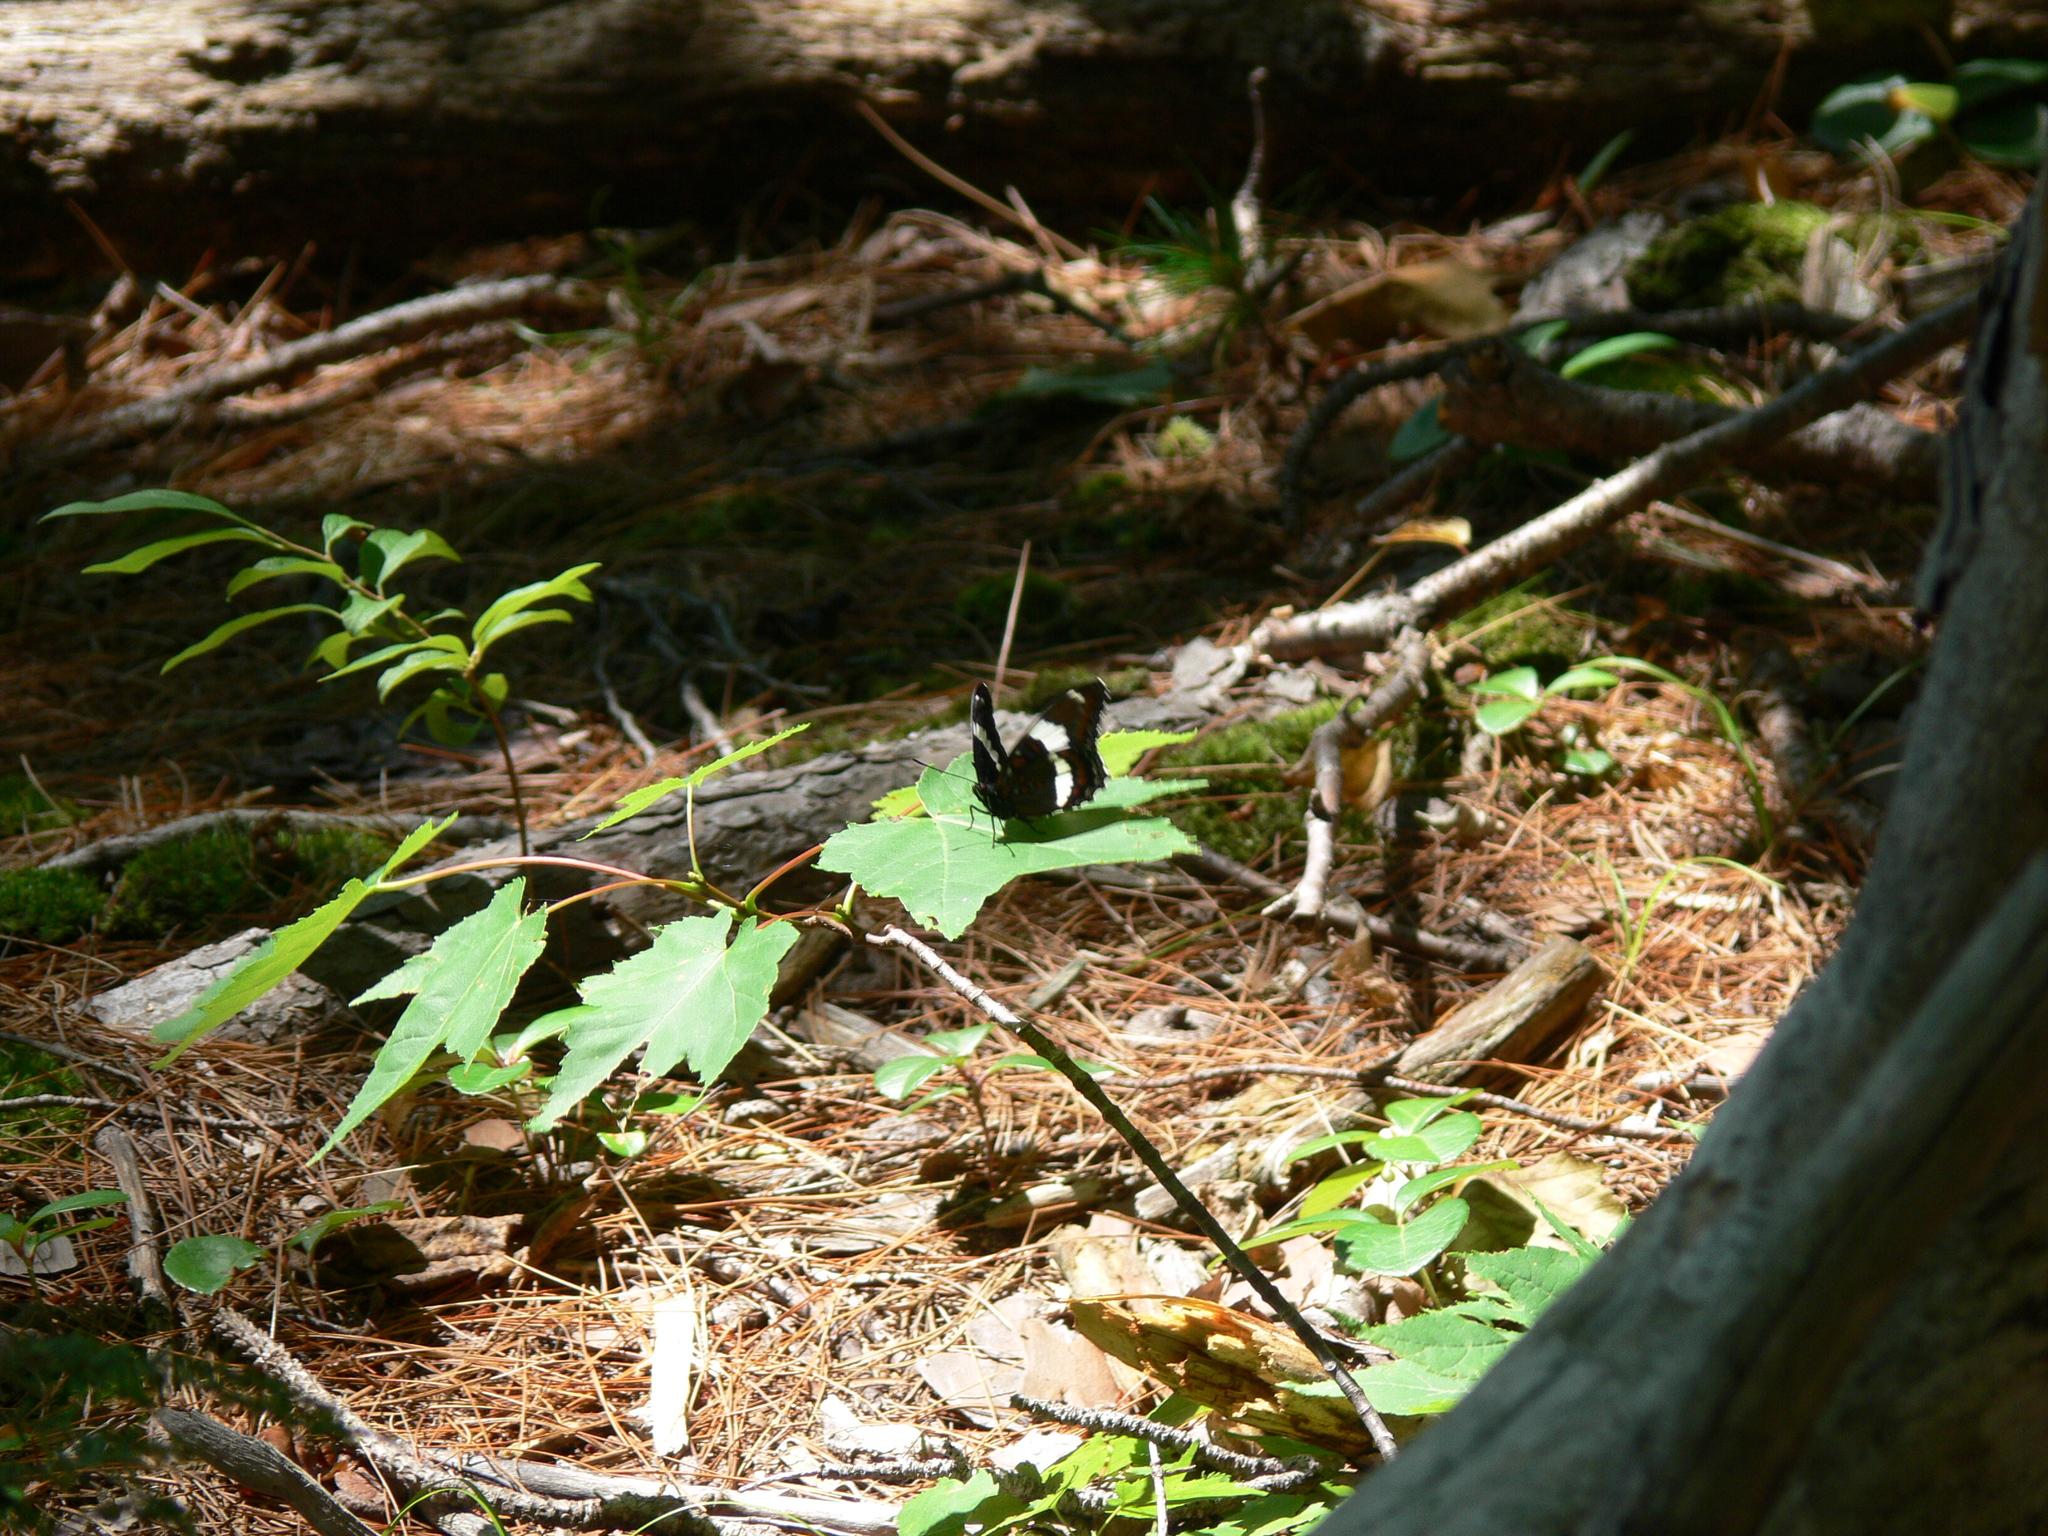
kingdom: Animalia
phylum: Arthropoda
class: Insecta
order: Lepidoptera
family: Nymphalidae
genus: Limenitis
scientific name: Limenitis arthemis
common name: Red-spotted admiral
